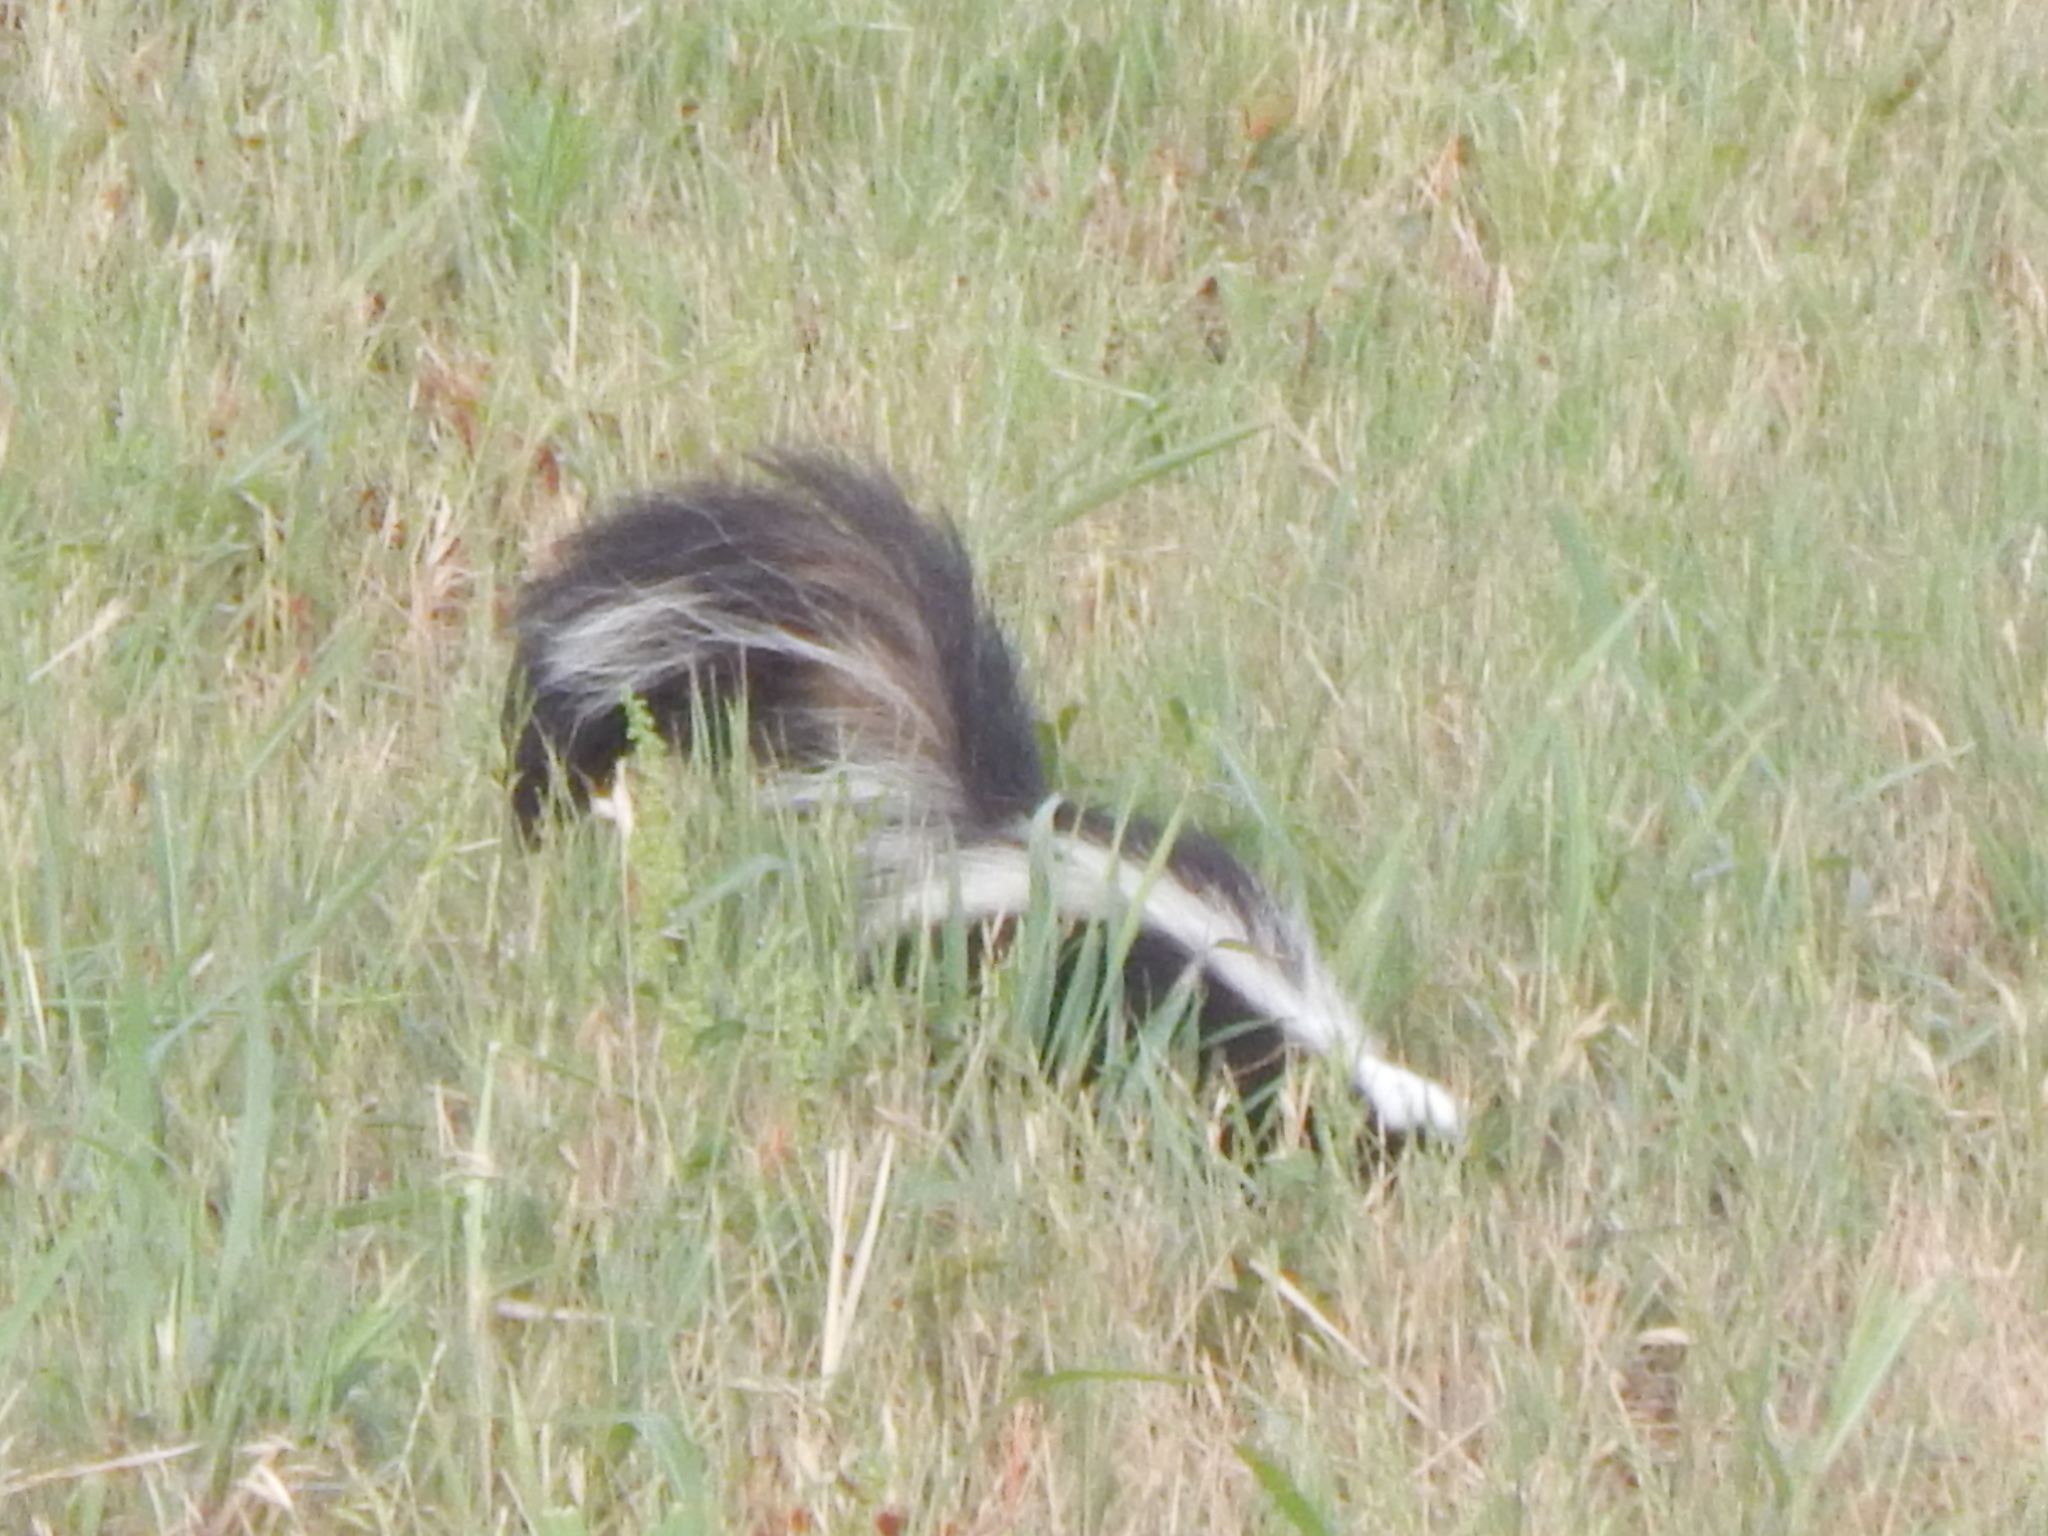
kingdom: Animalia
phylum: Chordata
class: Mammalia
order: Carnivora
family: Mephitidae
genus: Mephitis
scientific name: Mephitis mephitis
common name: Striped skunk
